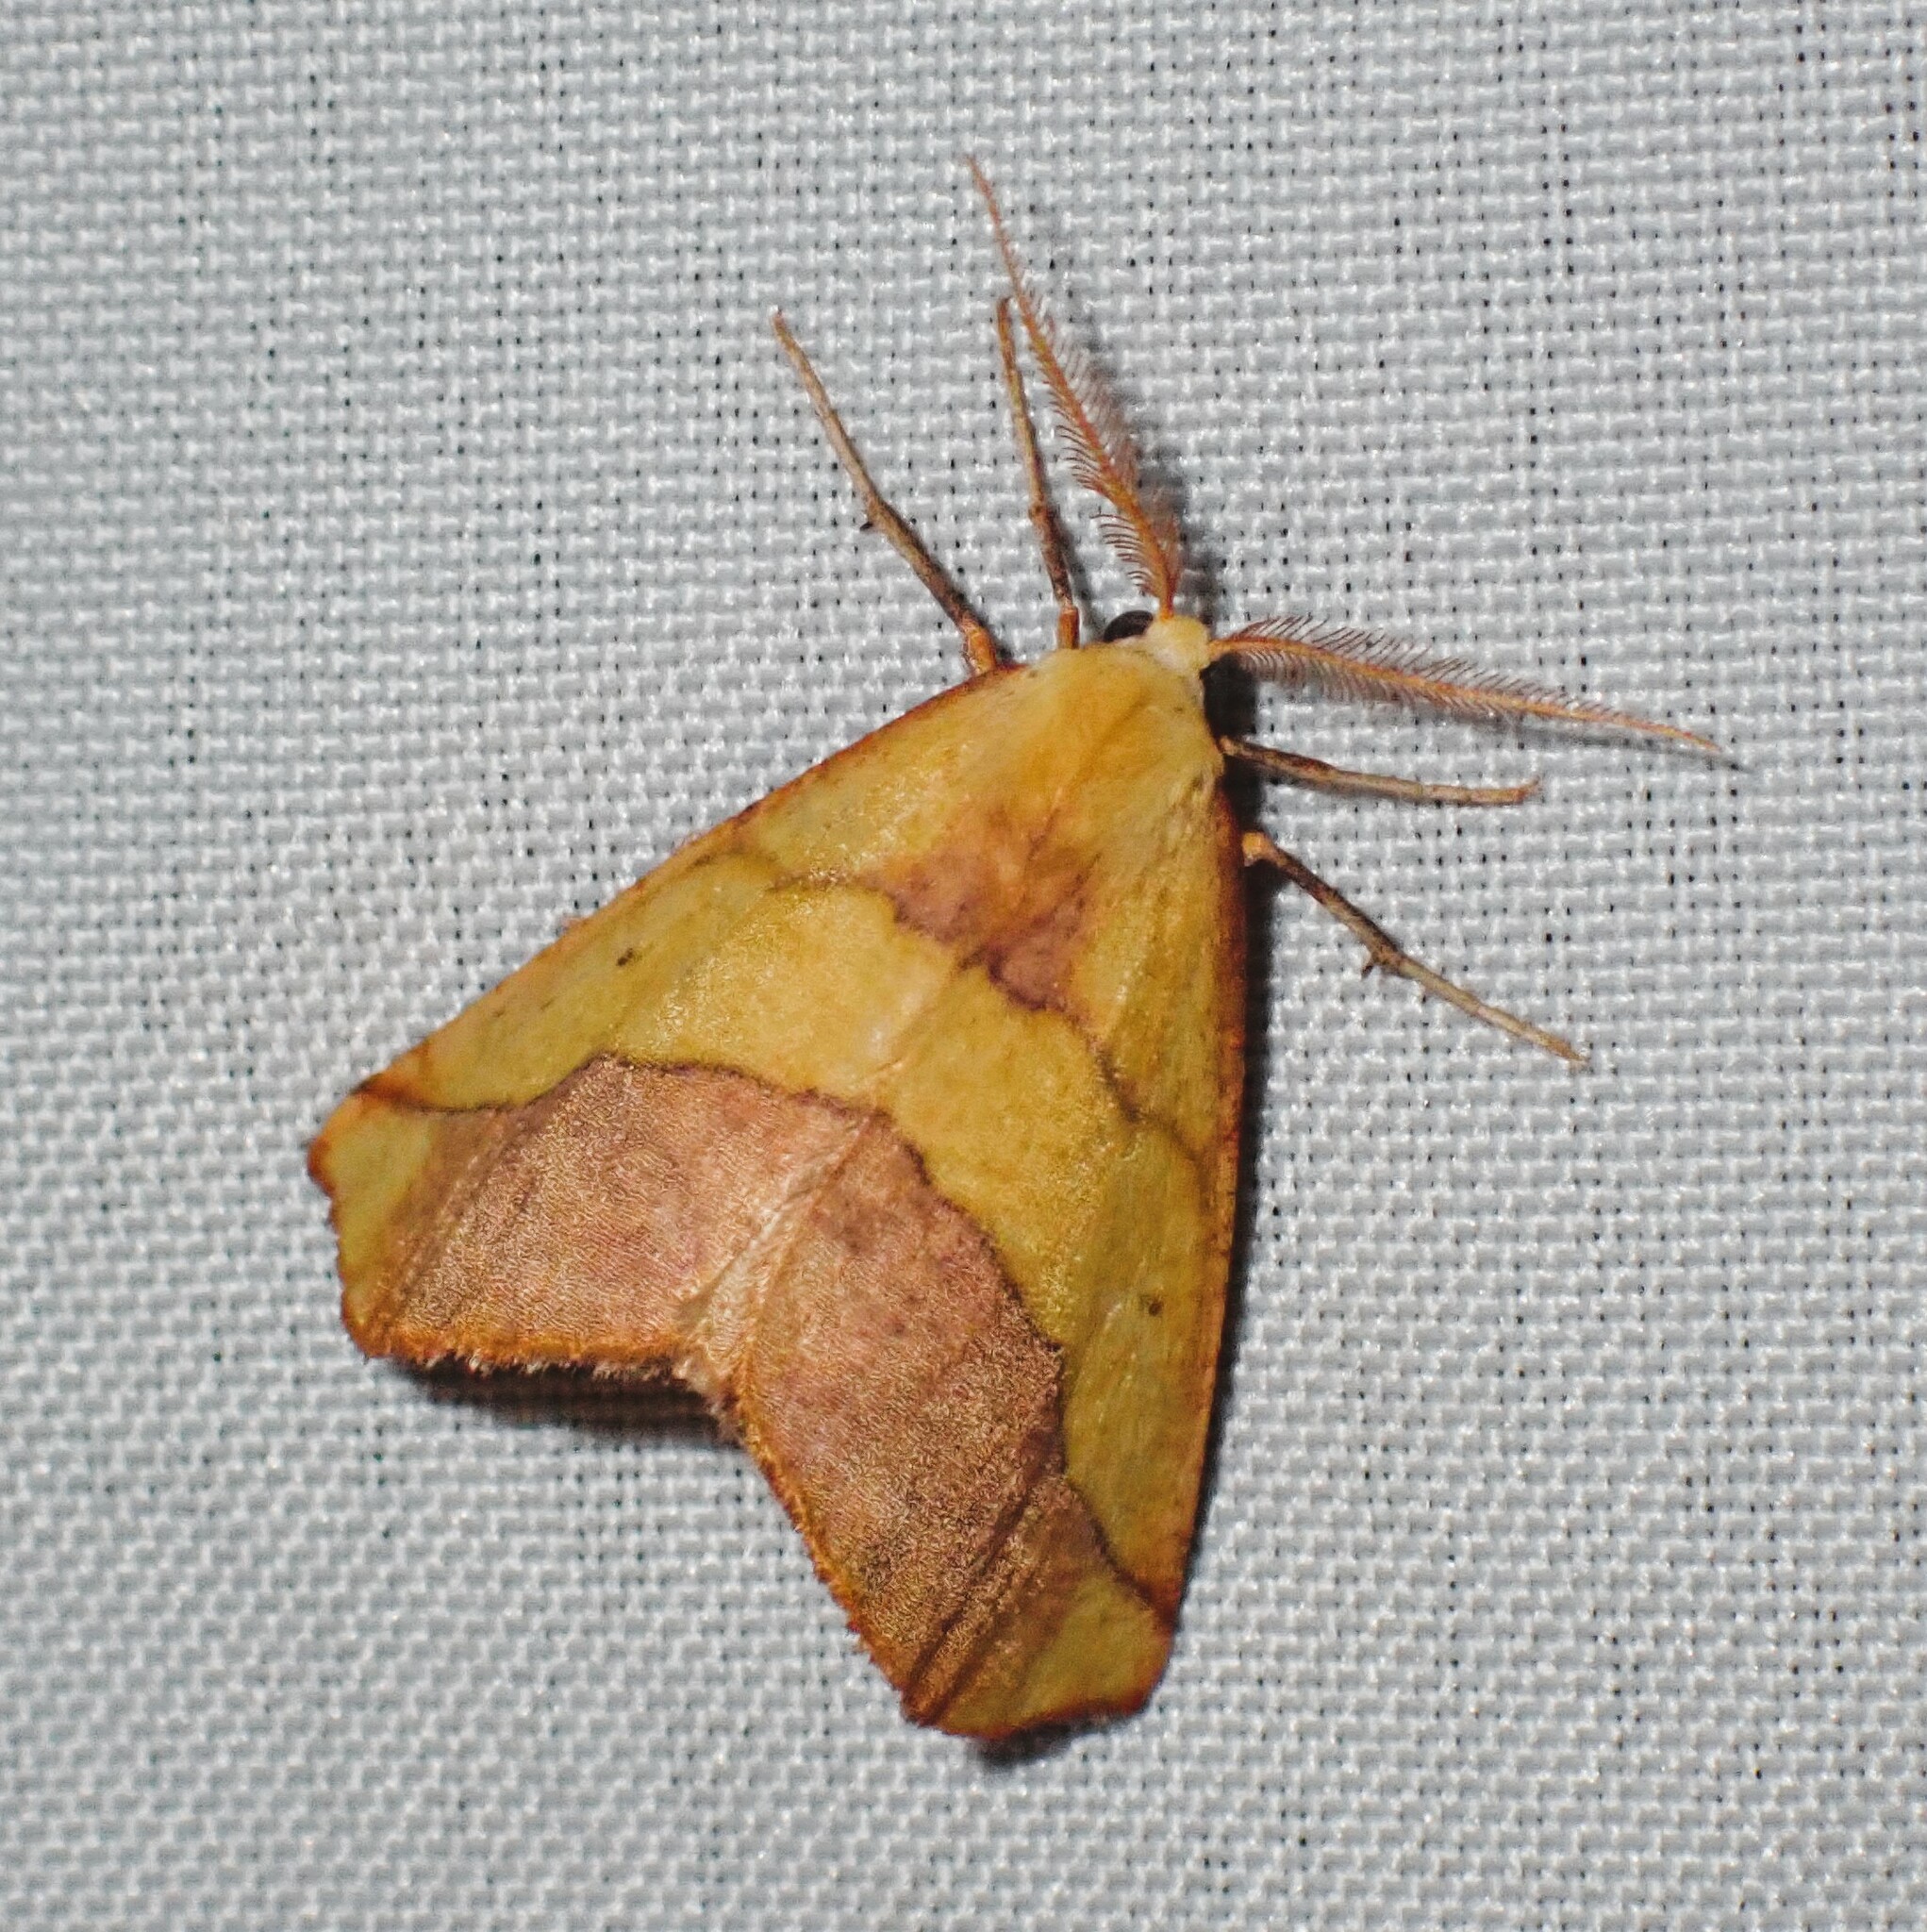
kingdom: Animalia
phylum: Arthropoda
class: Insecta
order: Lepidoptera
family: Geometridae
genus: Sicya
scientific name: Sicya macularia
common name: Sharp-lined yellow
